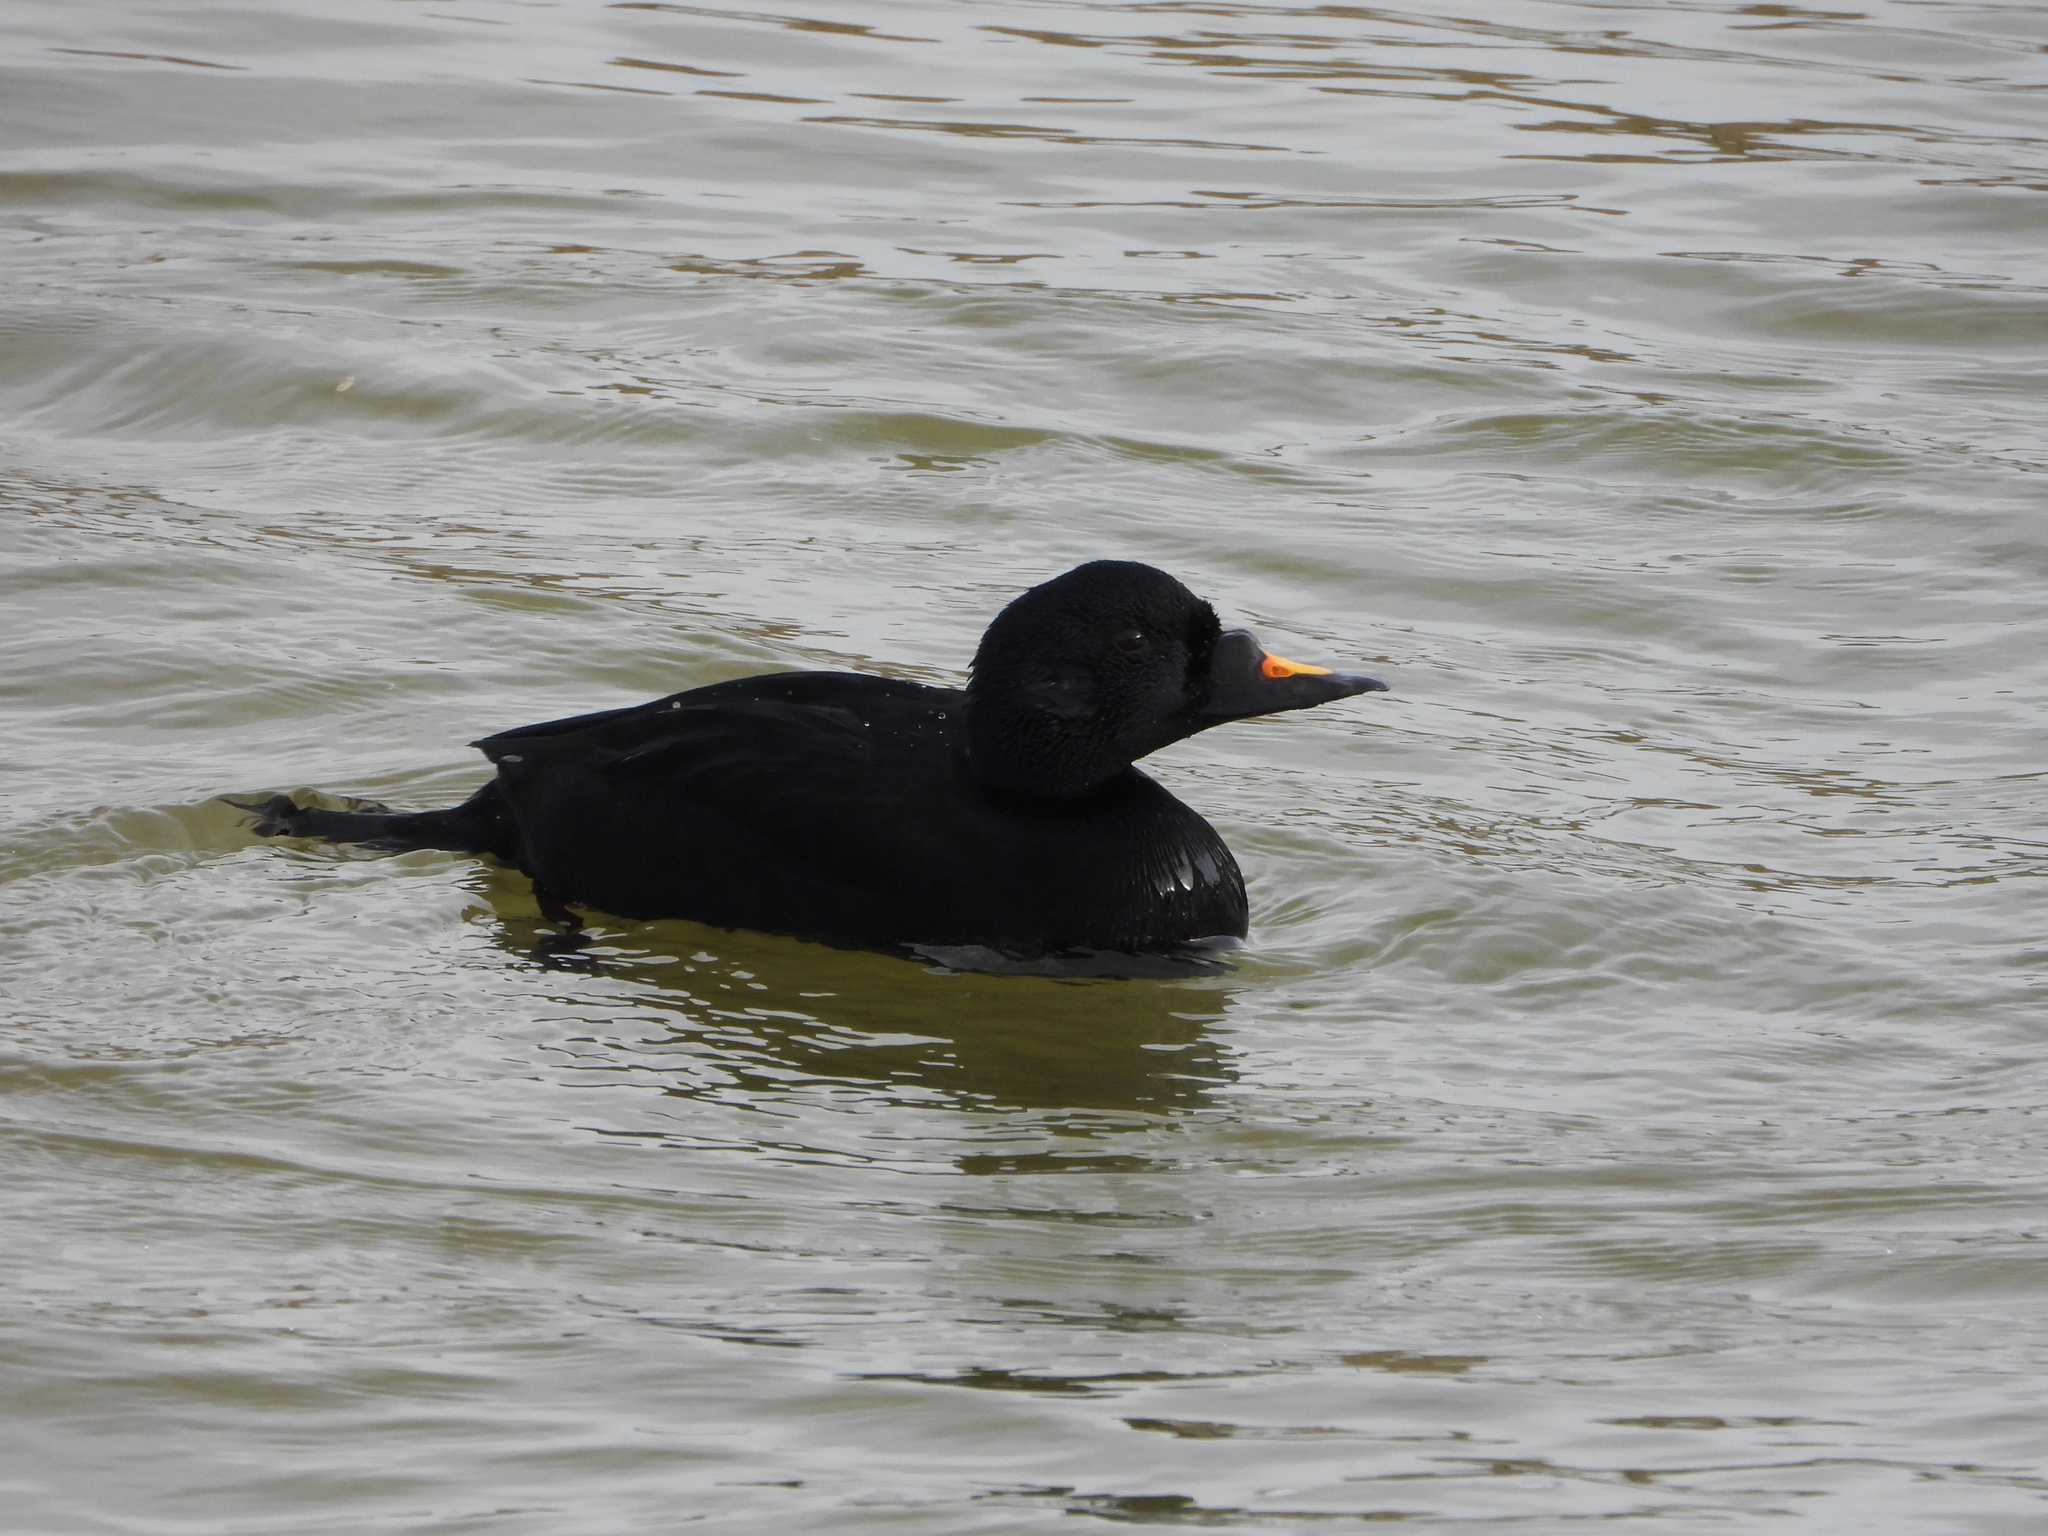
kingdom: Animalia
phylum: Chordata
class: Aves
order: Anseriformes
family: Anatidae
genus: Melanitta
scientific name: Melanitta nigra
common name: Common scoter
